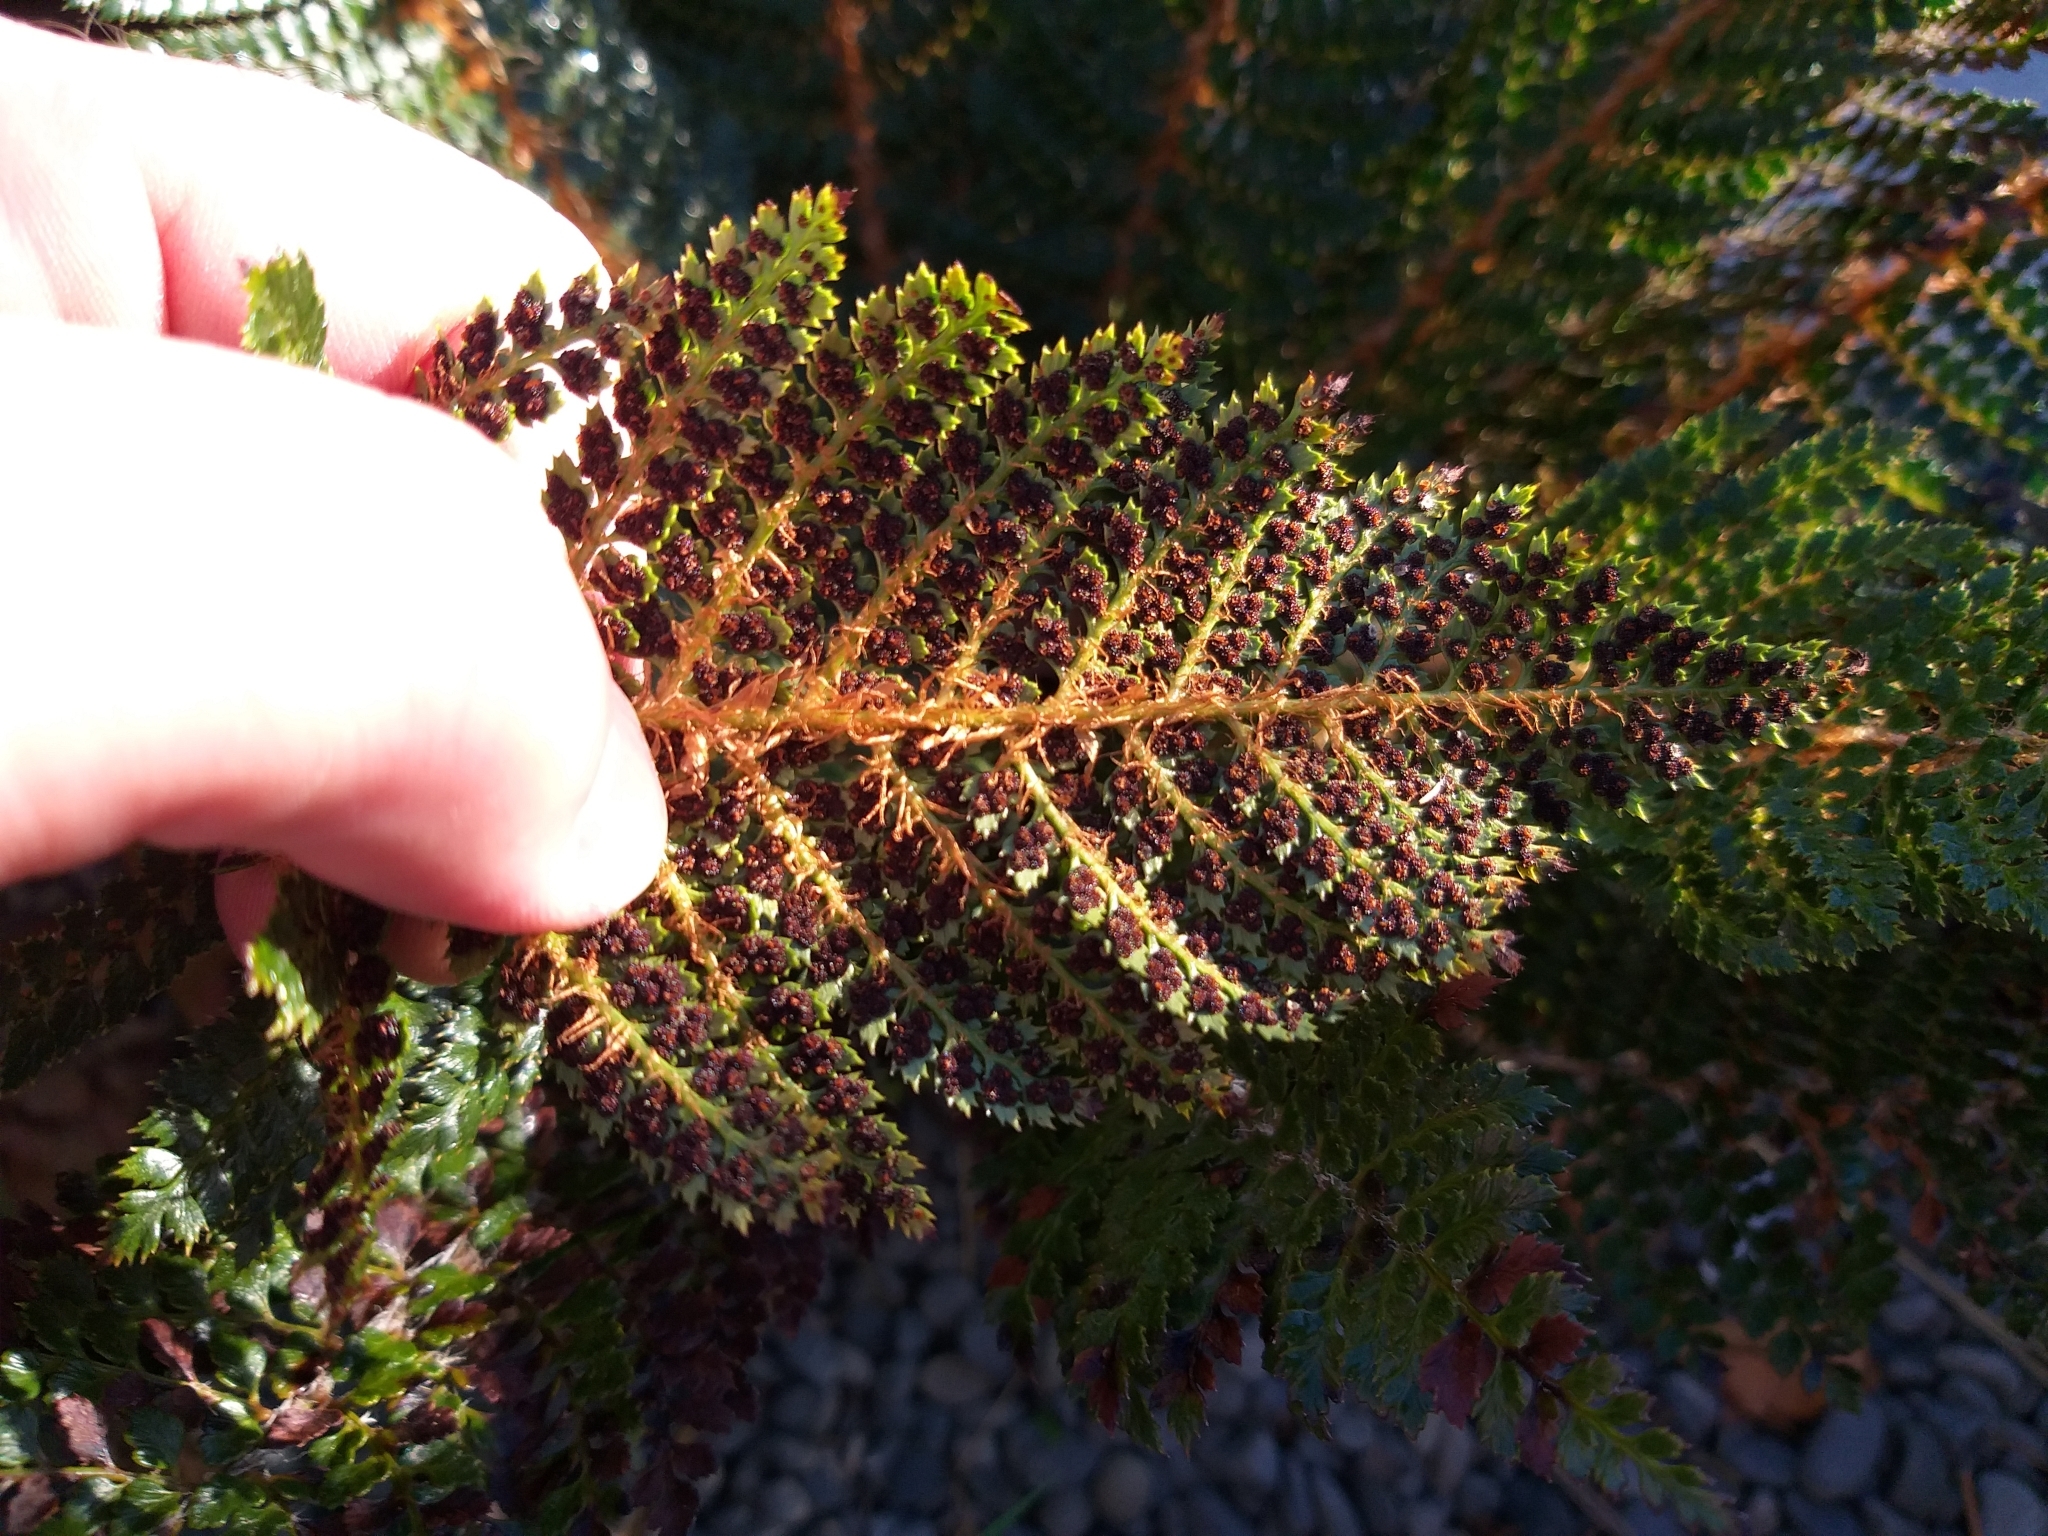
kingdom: Plantae
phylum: Tracheophyta
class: Polypodiopsida
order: Polypodiales
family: Dryopteridaceae
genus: Polystichum
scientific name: Polystichum vestitum
